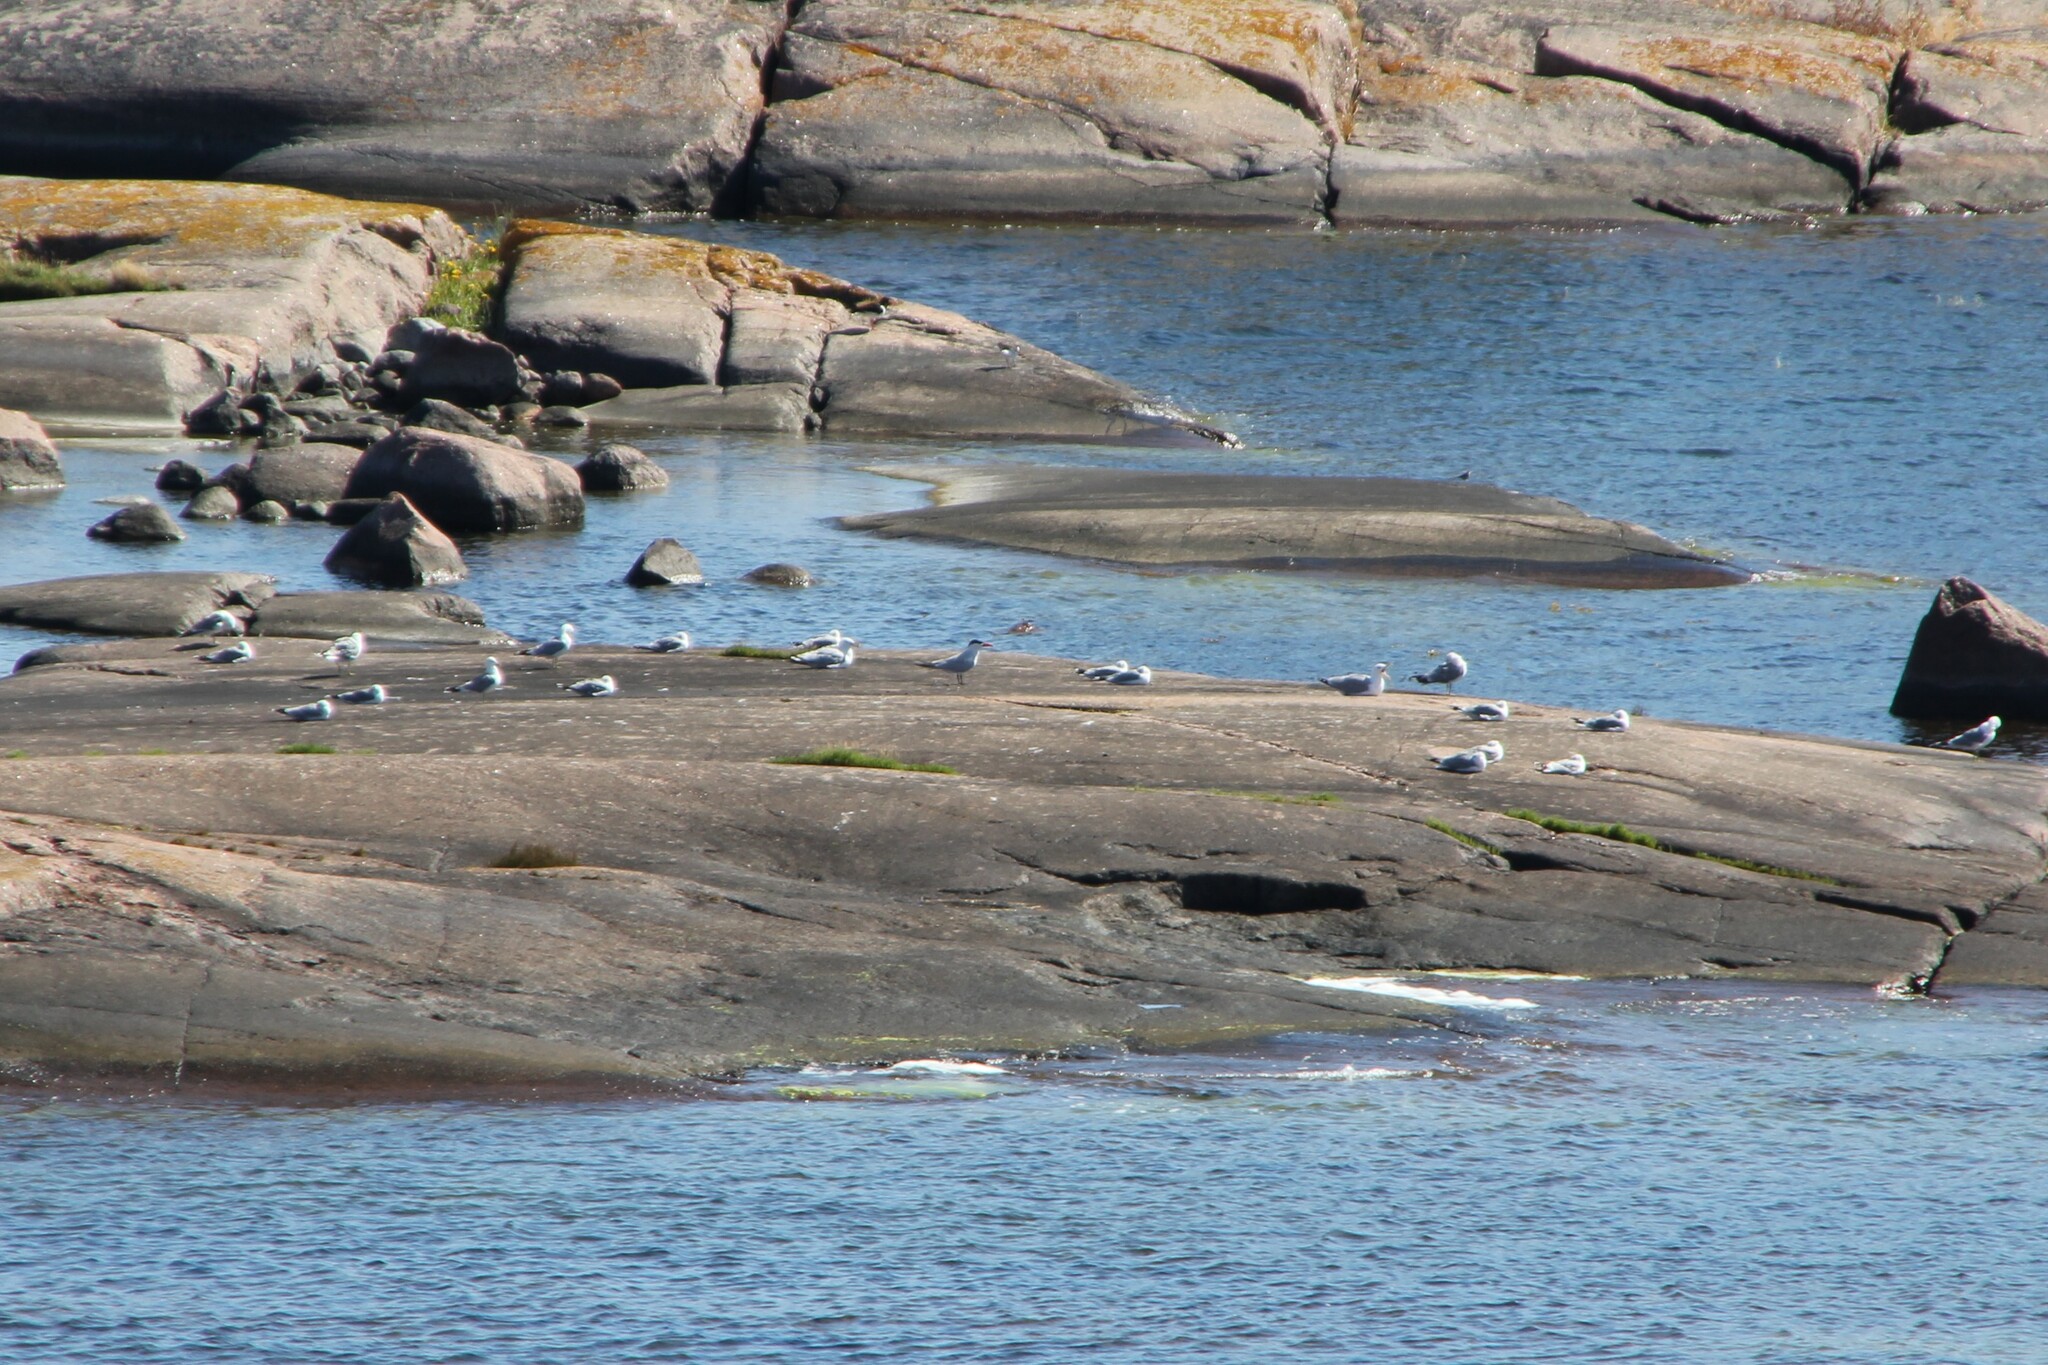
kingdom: Animalia
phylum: Chordata
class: Aves
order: Charadriiformes
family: Laridae
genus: Hydroprogne
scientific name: Hydroprogne caspia
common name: Caspian tern
